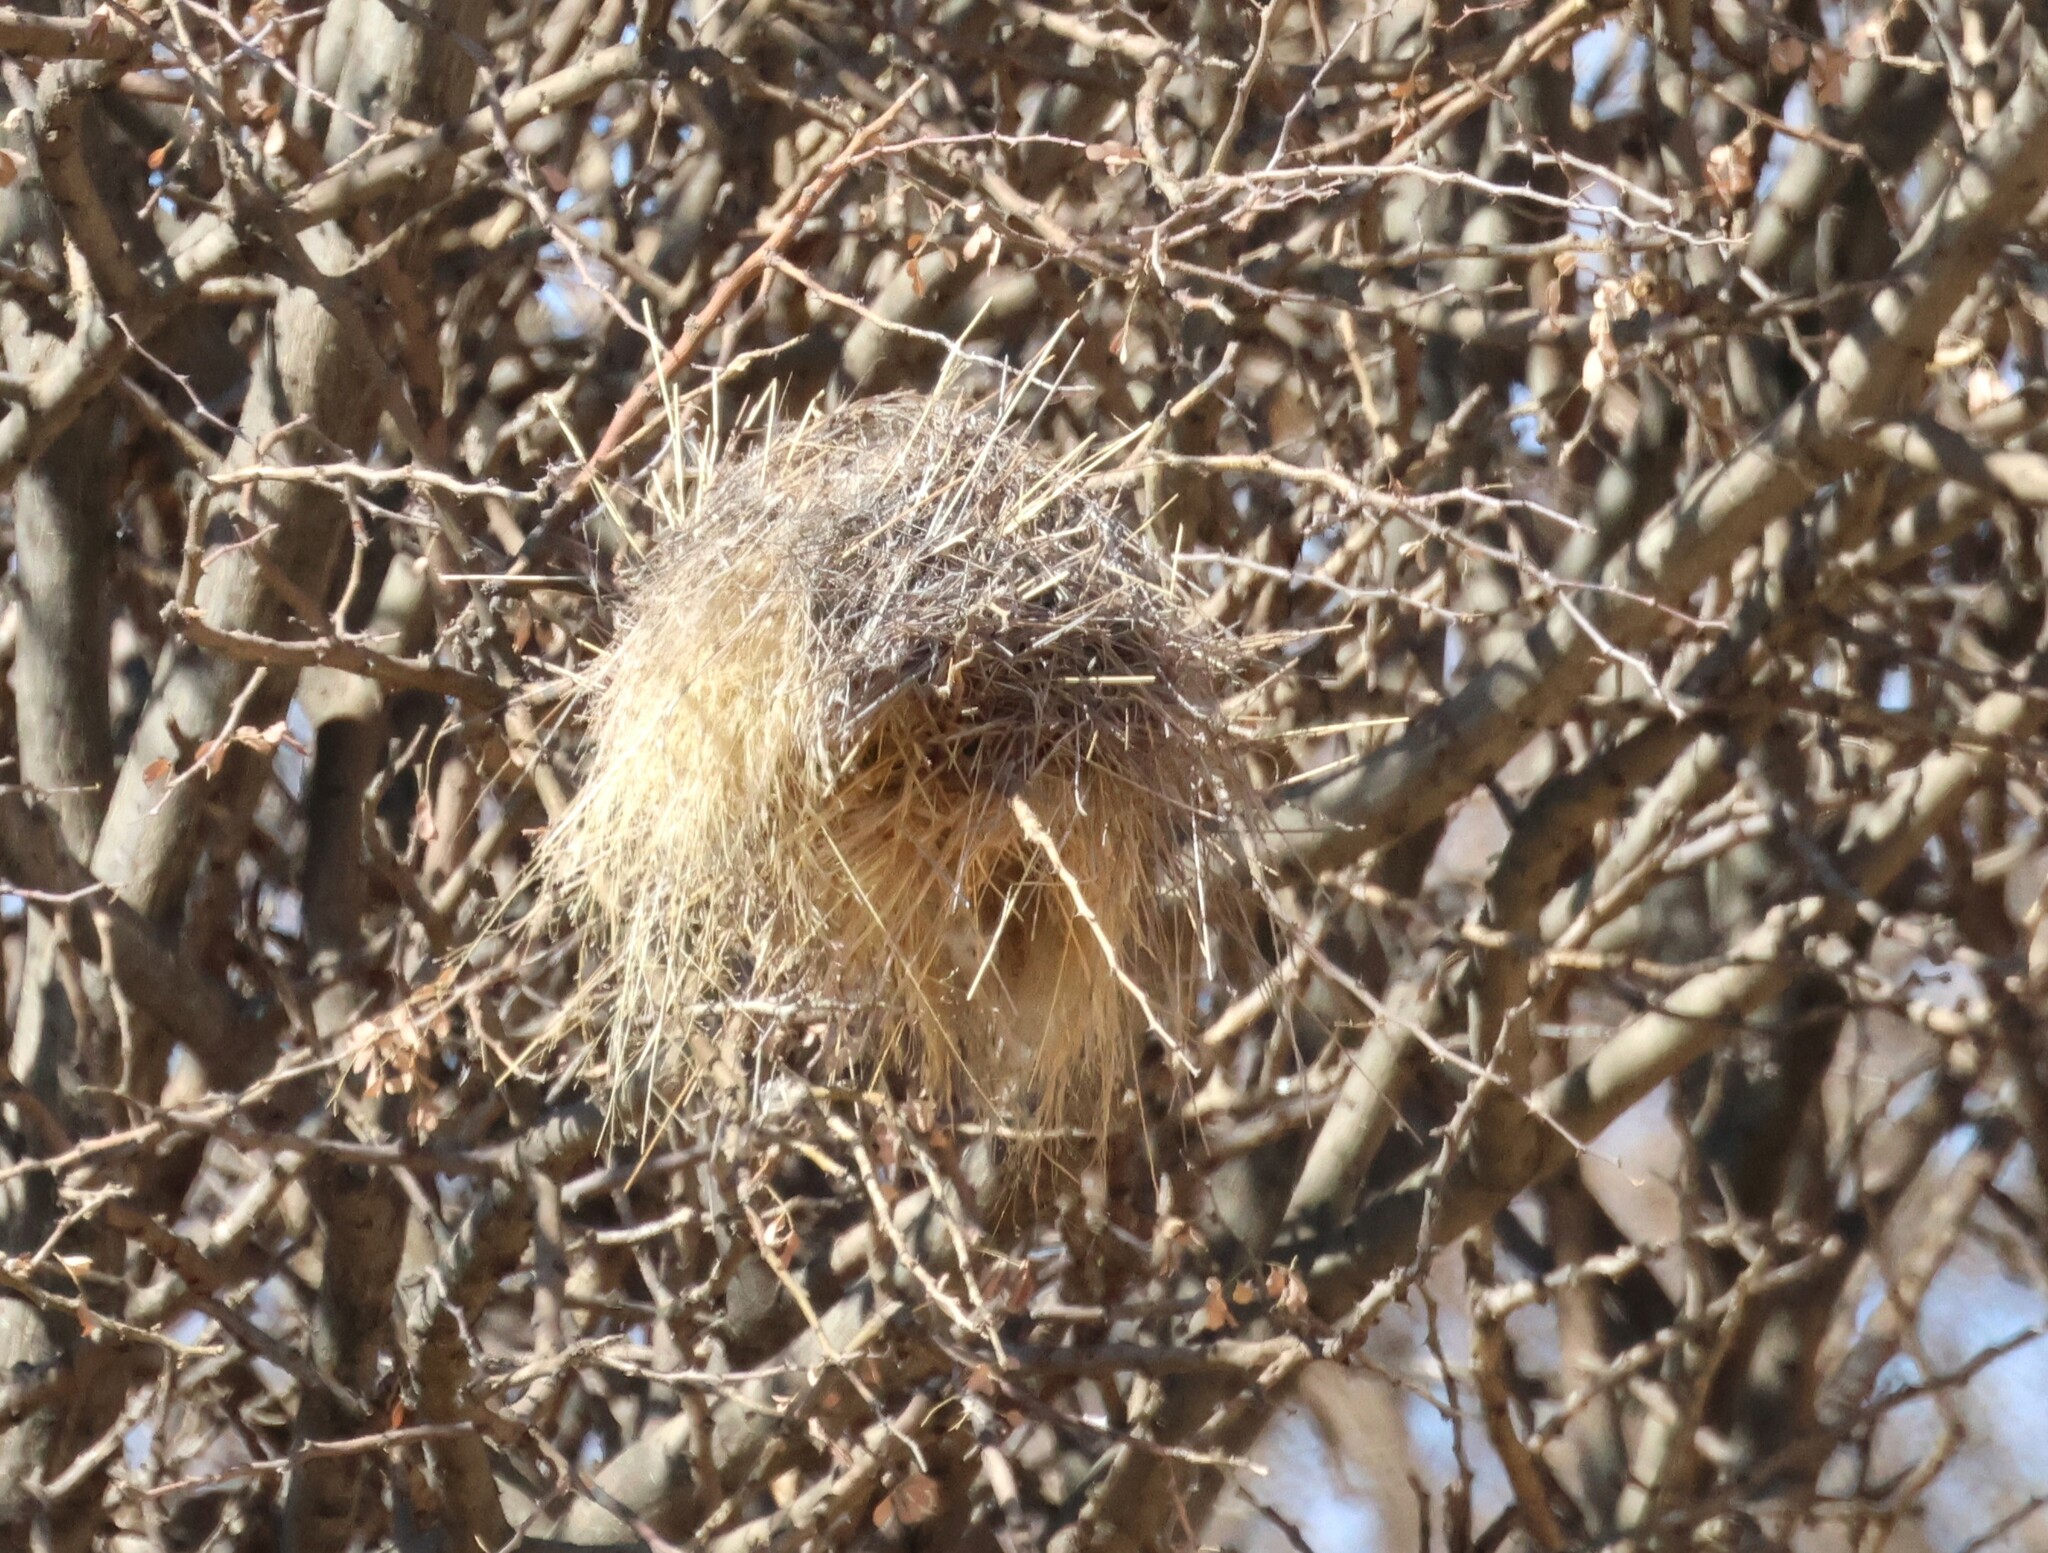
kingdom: Animalia
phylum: Chordata
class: Aves
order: Passeriformes
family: Passeridae
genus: Plocepasser
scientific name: Plocepasser mahali
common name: White-browed sparrow-weaver
